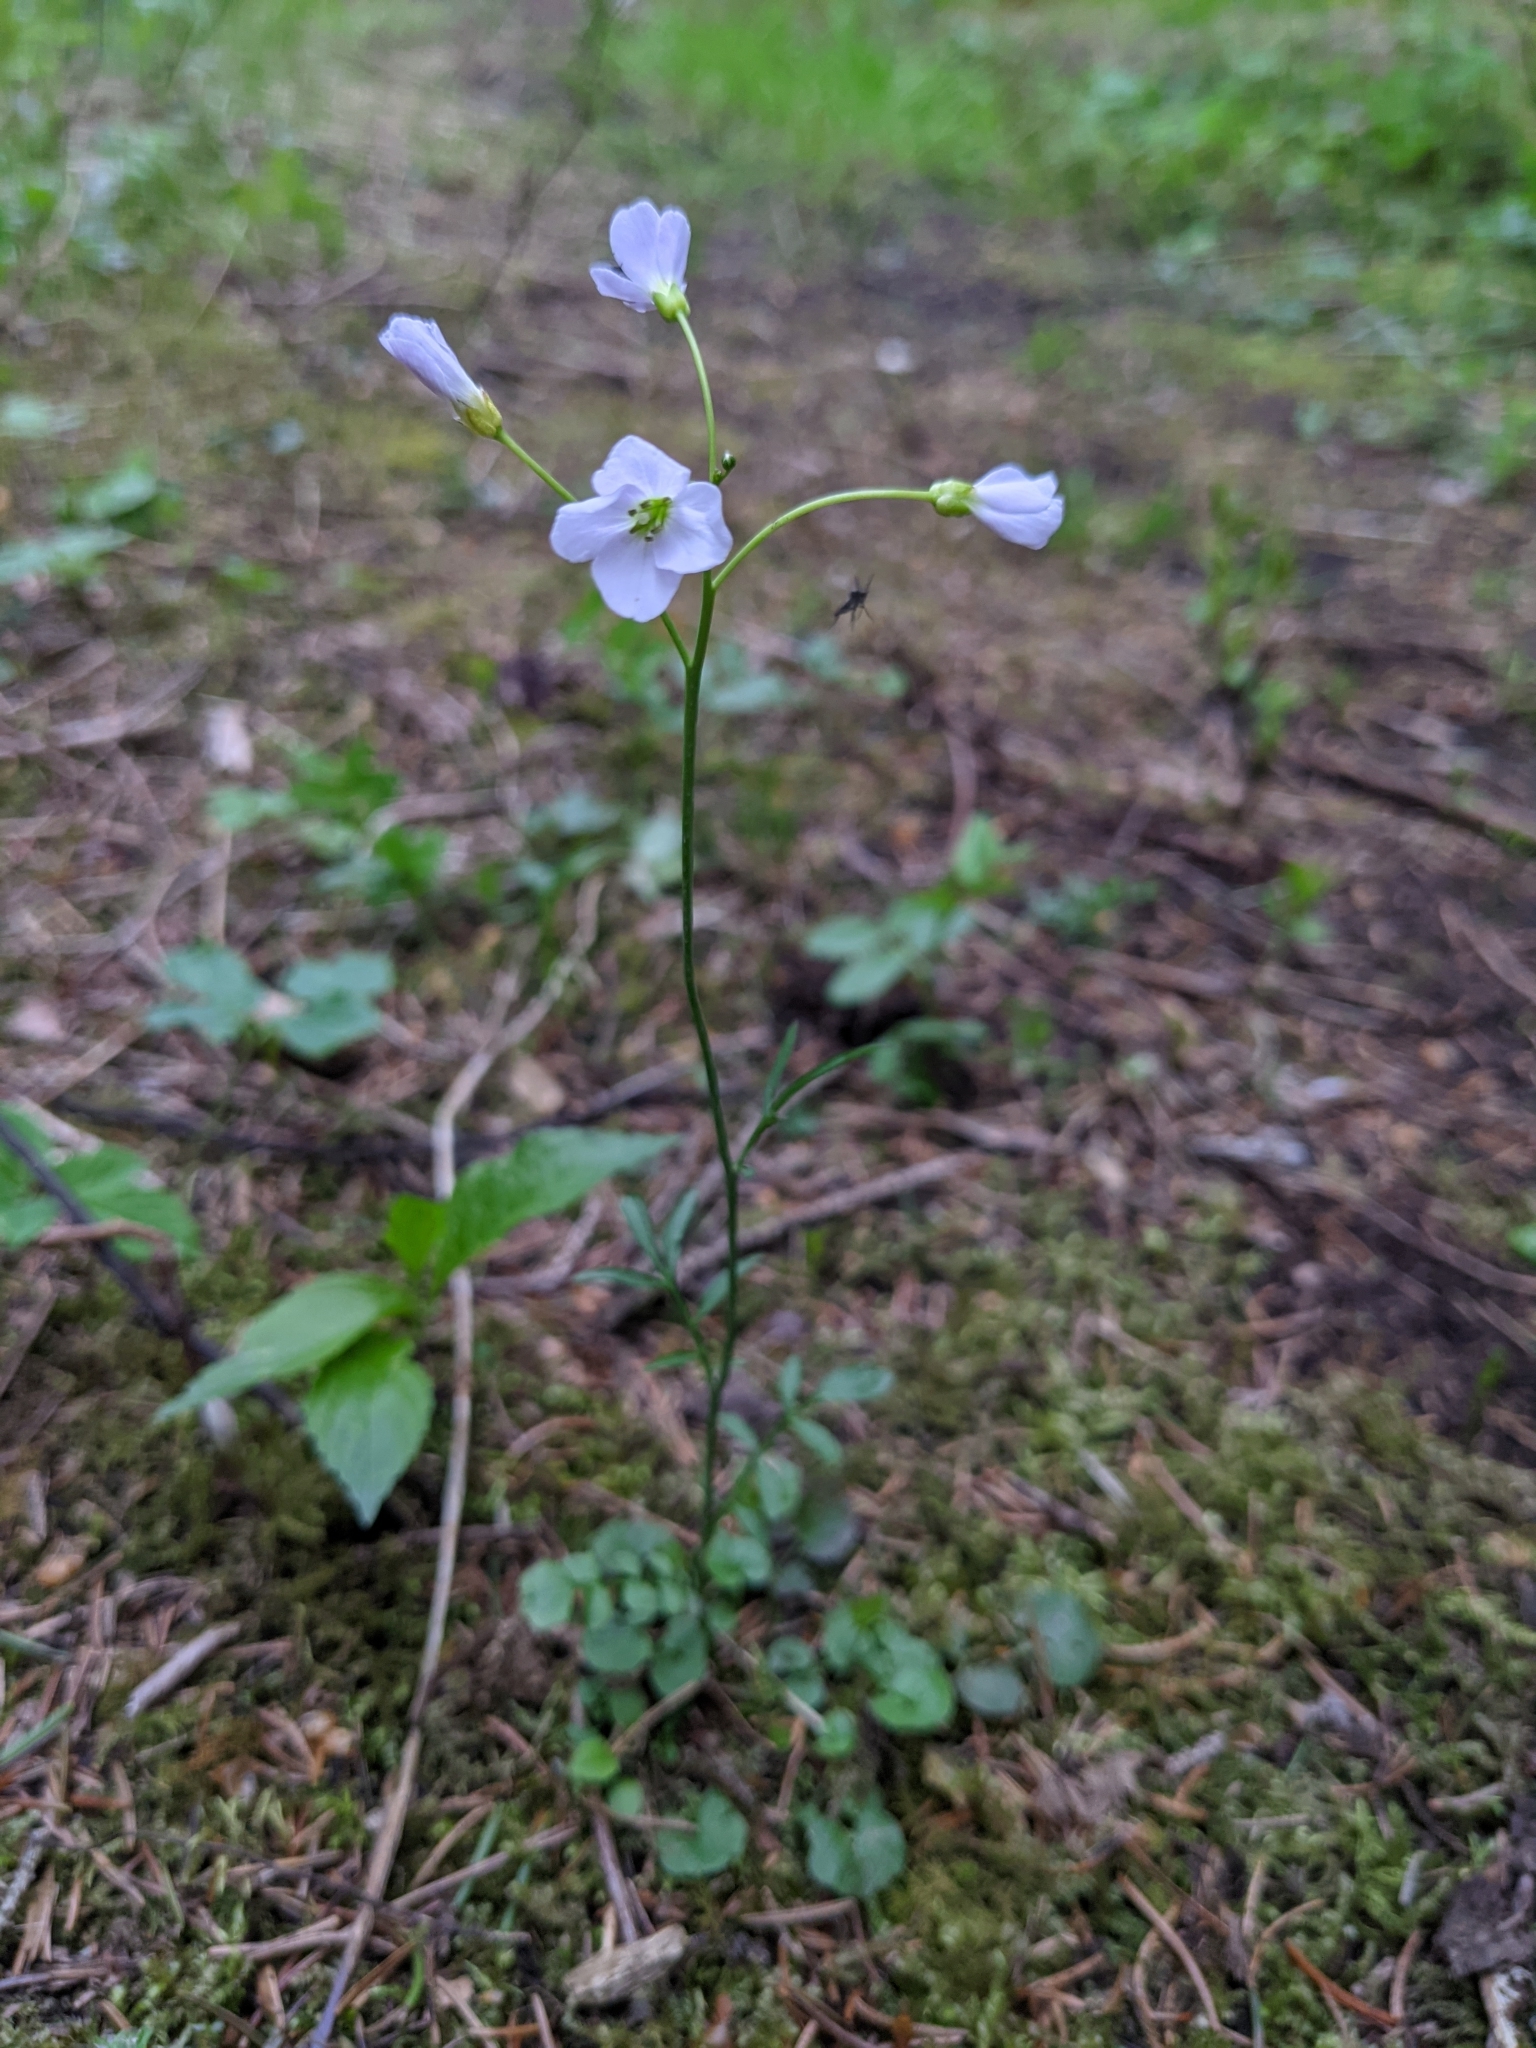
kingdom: Plantae
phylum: Tracheophyta
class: Magnoliopsida
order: Brassicales
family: Brassicaceae
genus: Cardamine
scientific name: Cardamine pratensis
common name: Cuckoo flower
